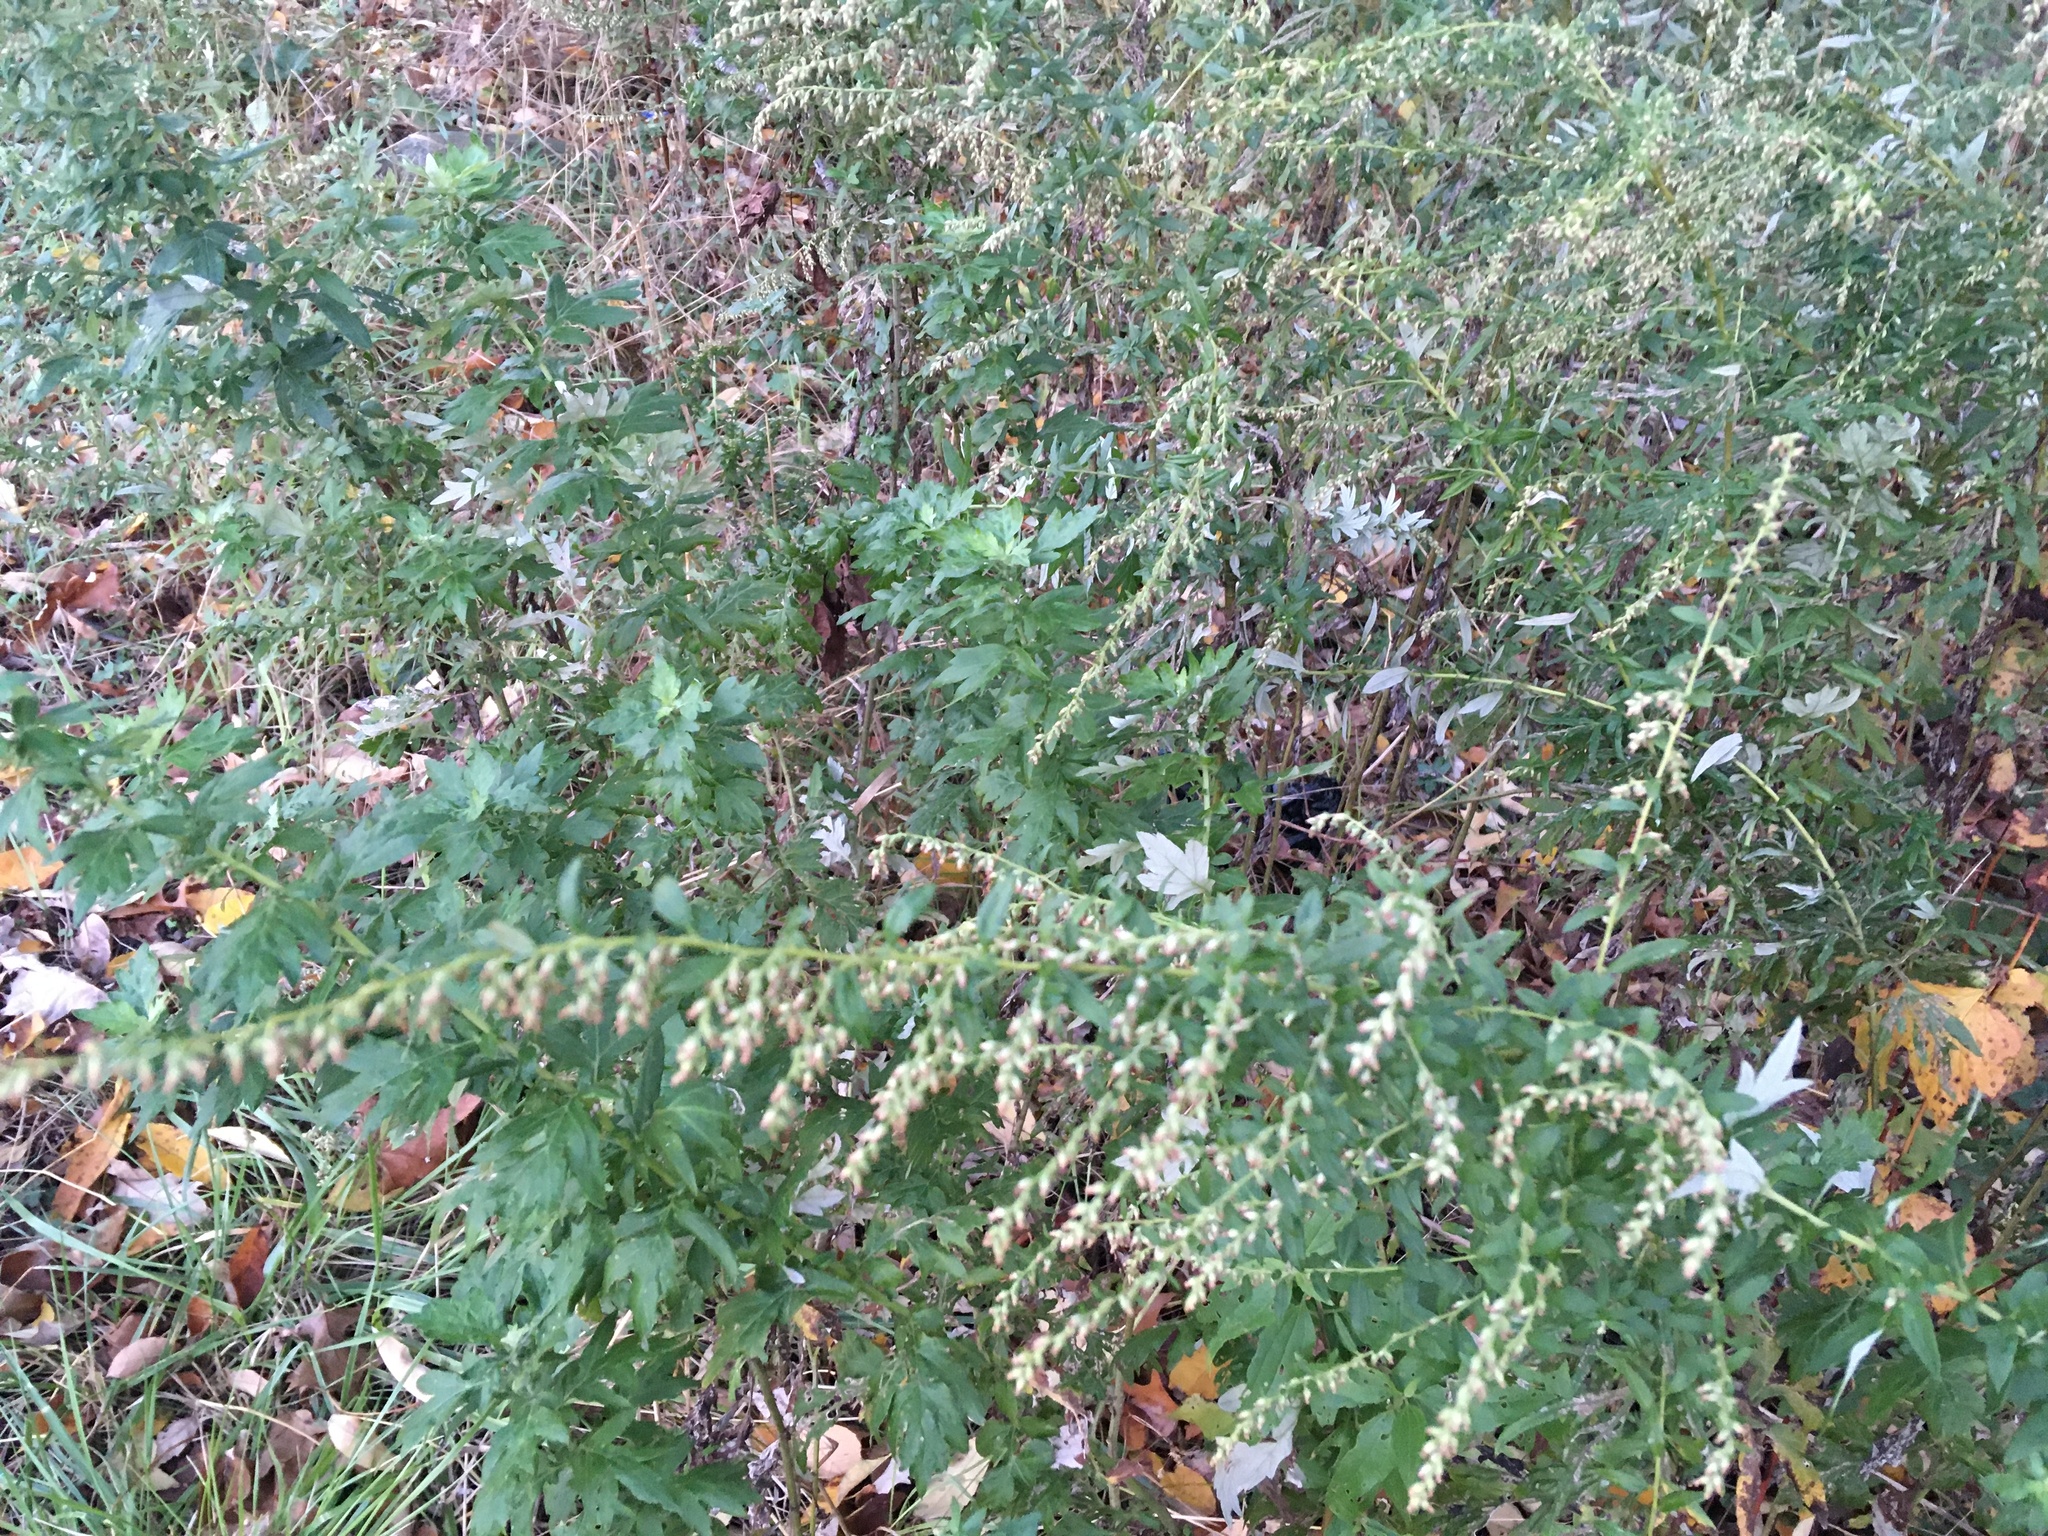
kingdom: Plantae
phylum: Tracheophyta
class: Magnoliopsida
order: Asterales
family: Asteraceae
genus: Artemisia
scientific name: Artemisia vulgaris
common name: Mugwort
